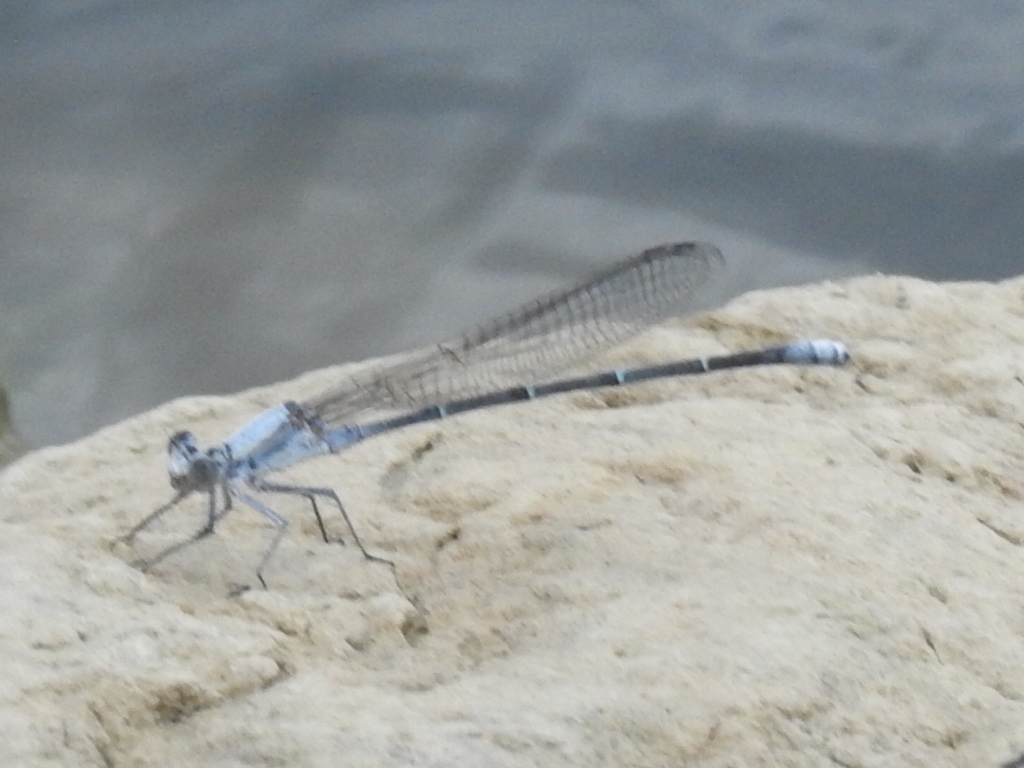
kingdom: Animalia
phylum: Arthropoda
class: Insecta
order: Odonata
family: Coenagrionidae
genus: Argia
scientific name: Argia moesta
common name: Powdered dancer
